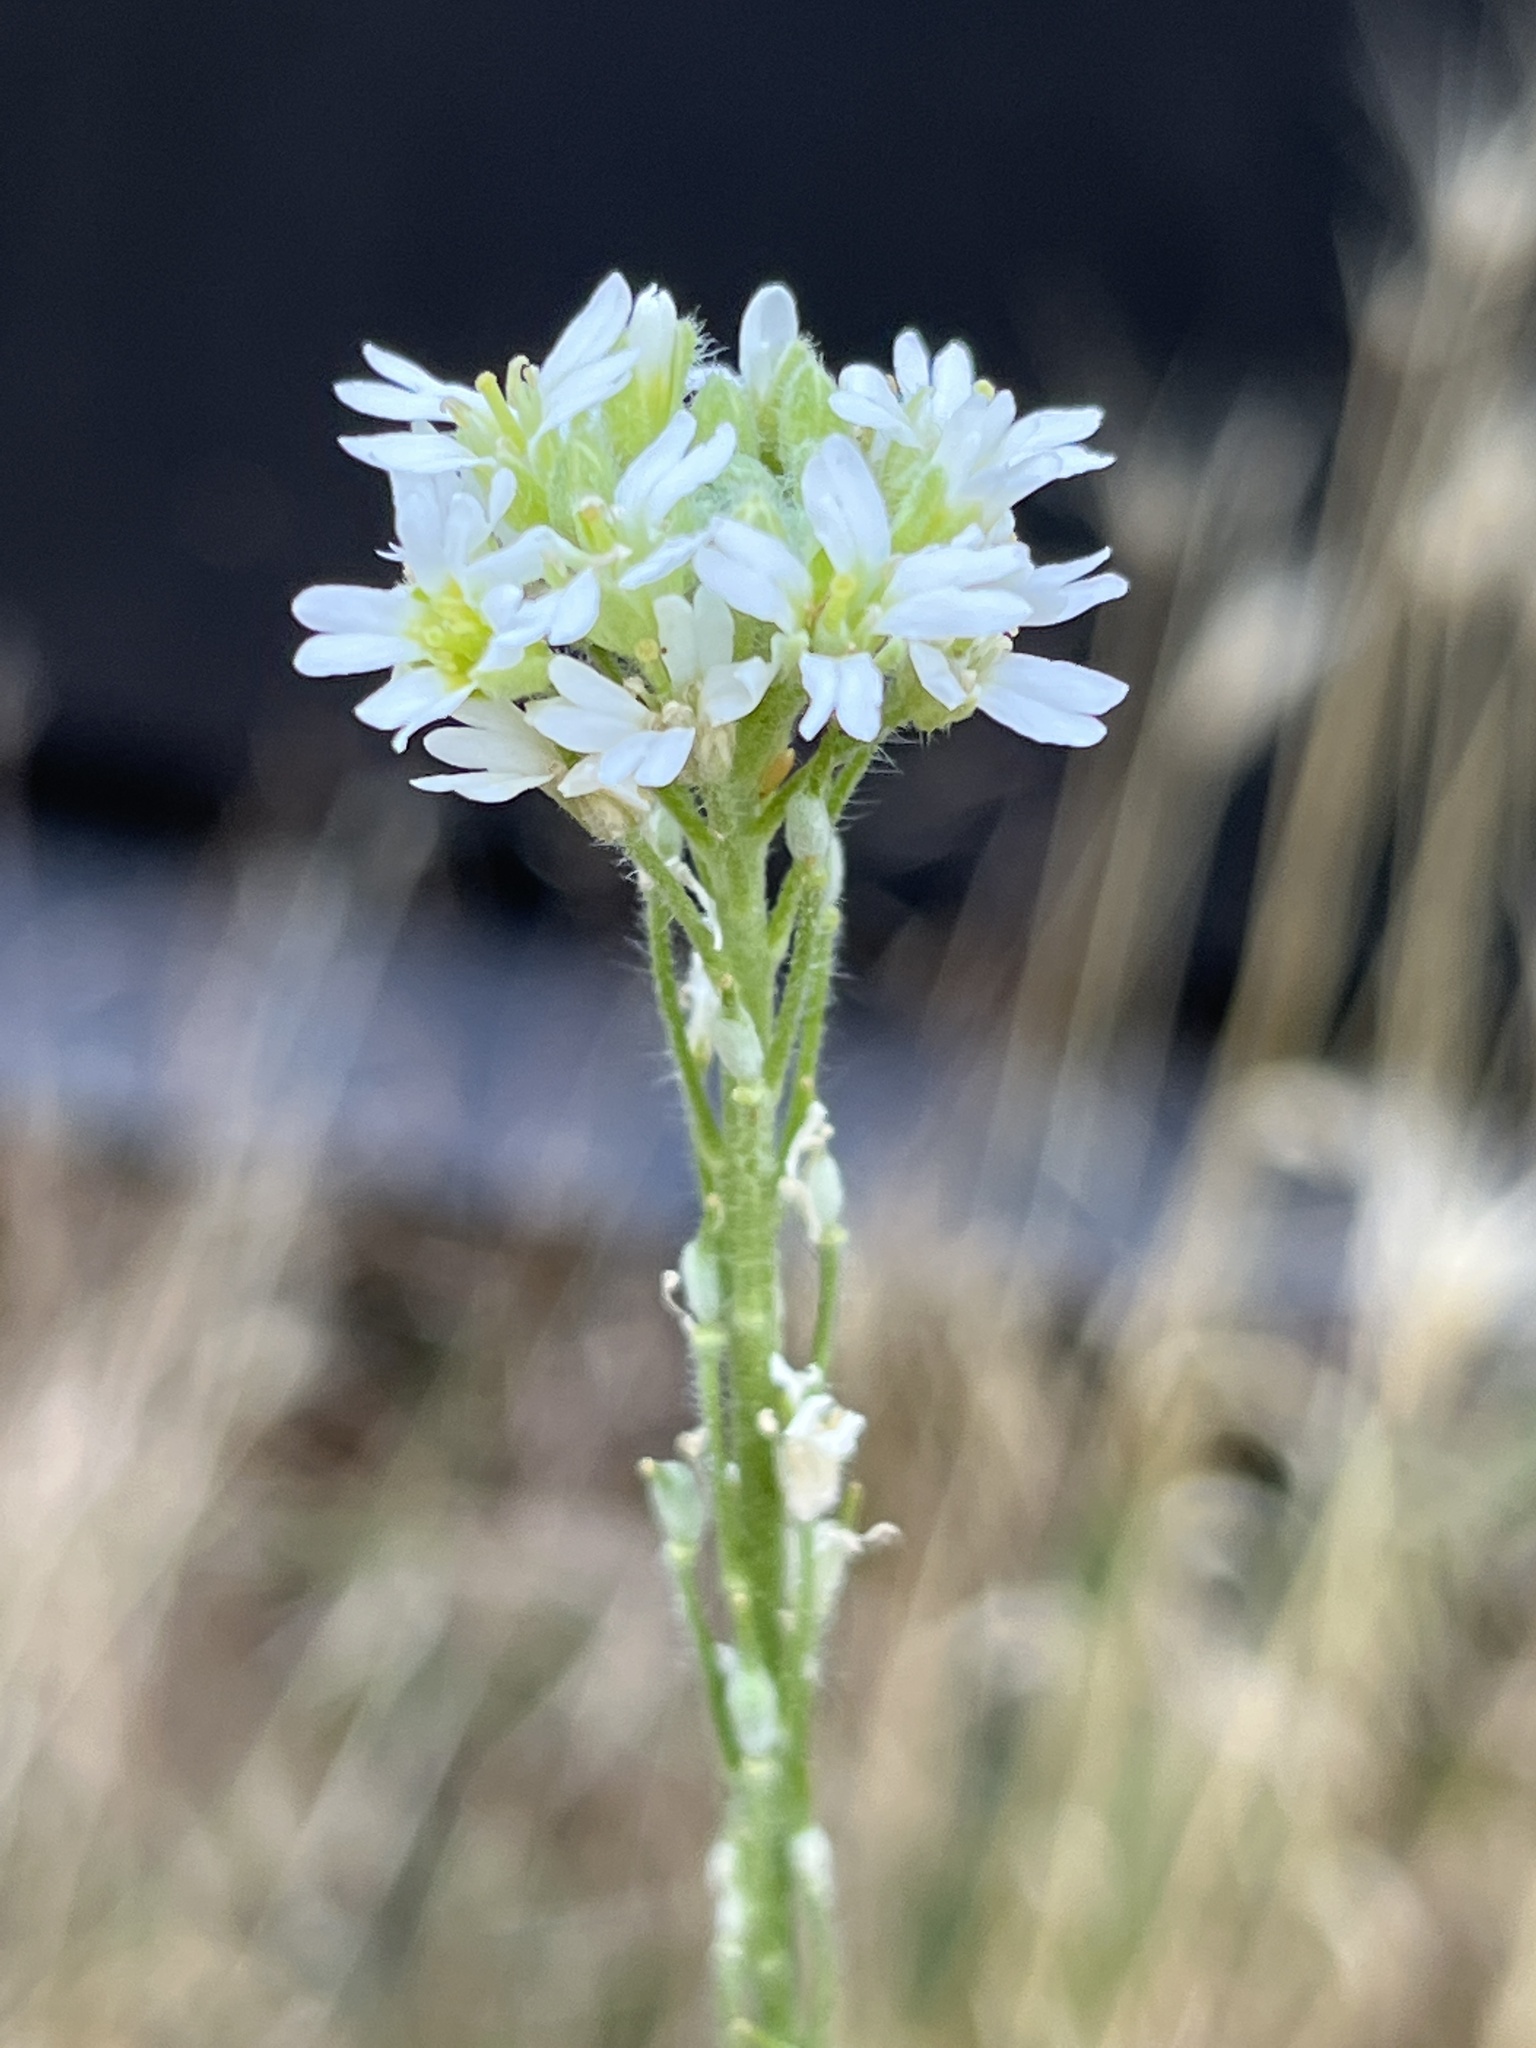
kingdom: Plantae
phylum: Tracheophyta
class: Magnoliopsida
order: Brassicales
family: Brassicaceae
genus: Berteroa
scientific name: Berteroa incana
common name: Hoary alison
